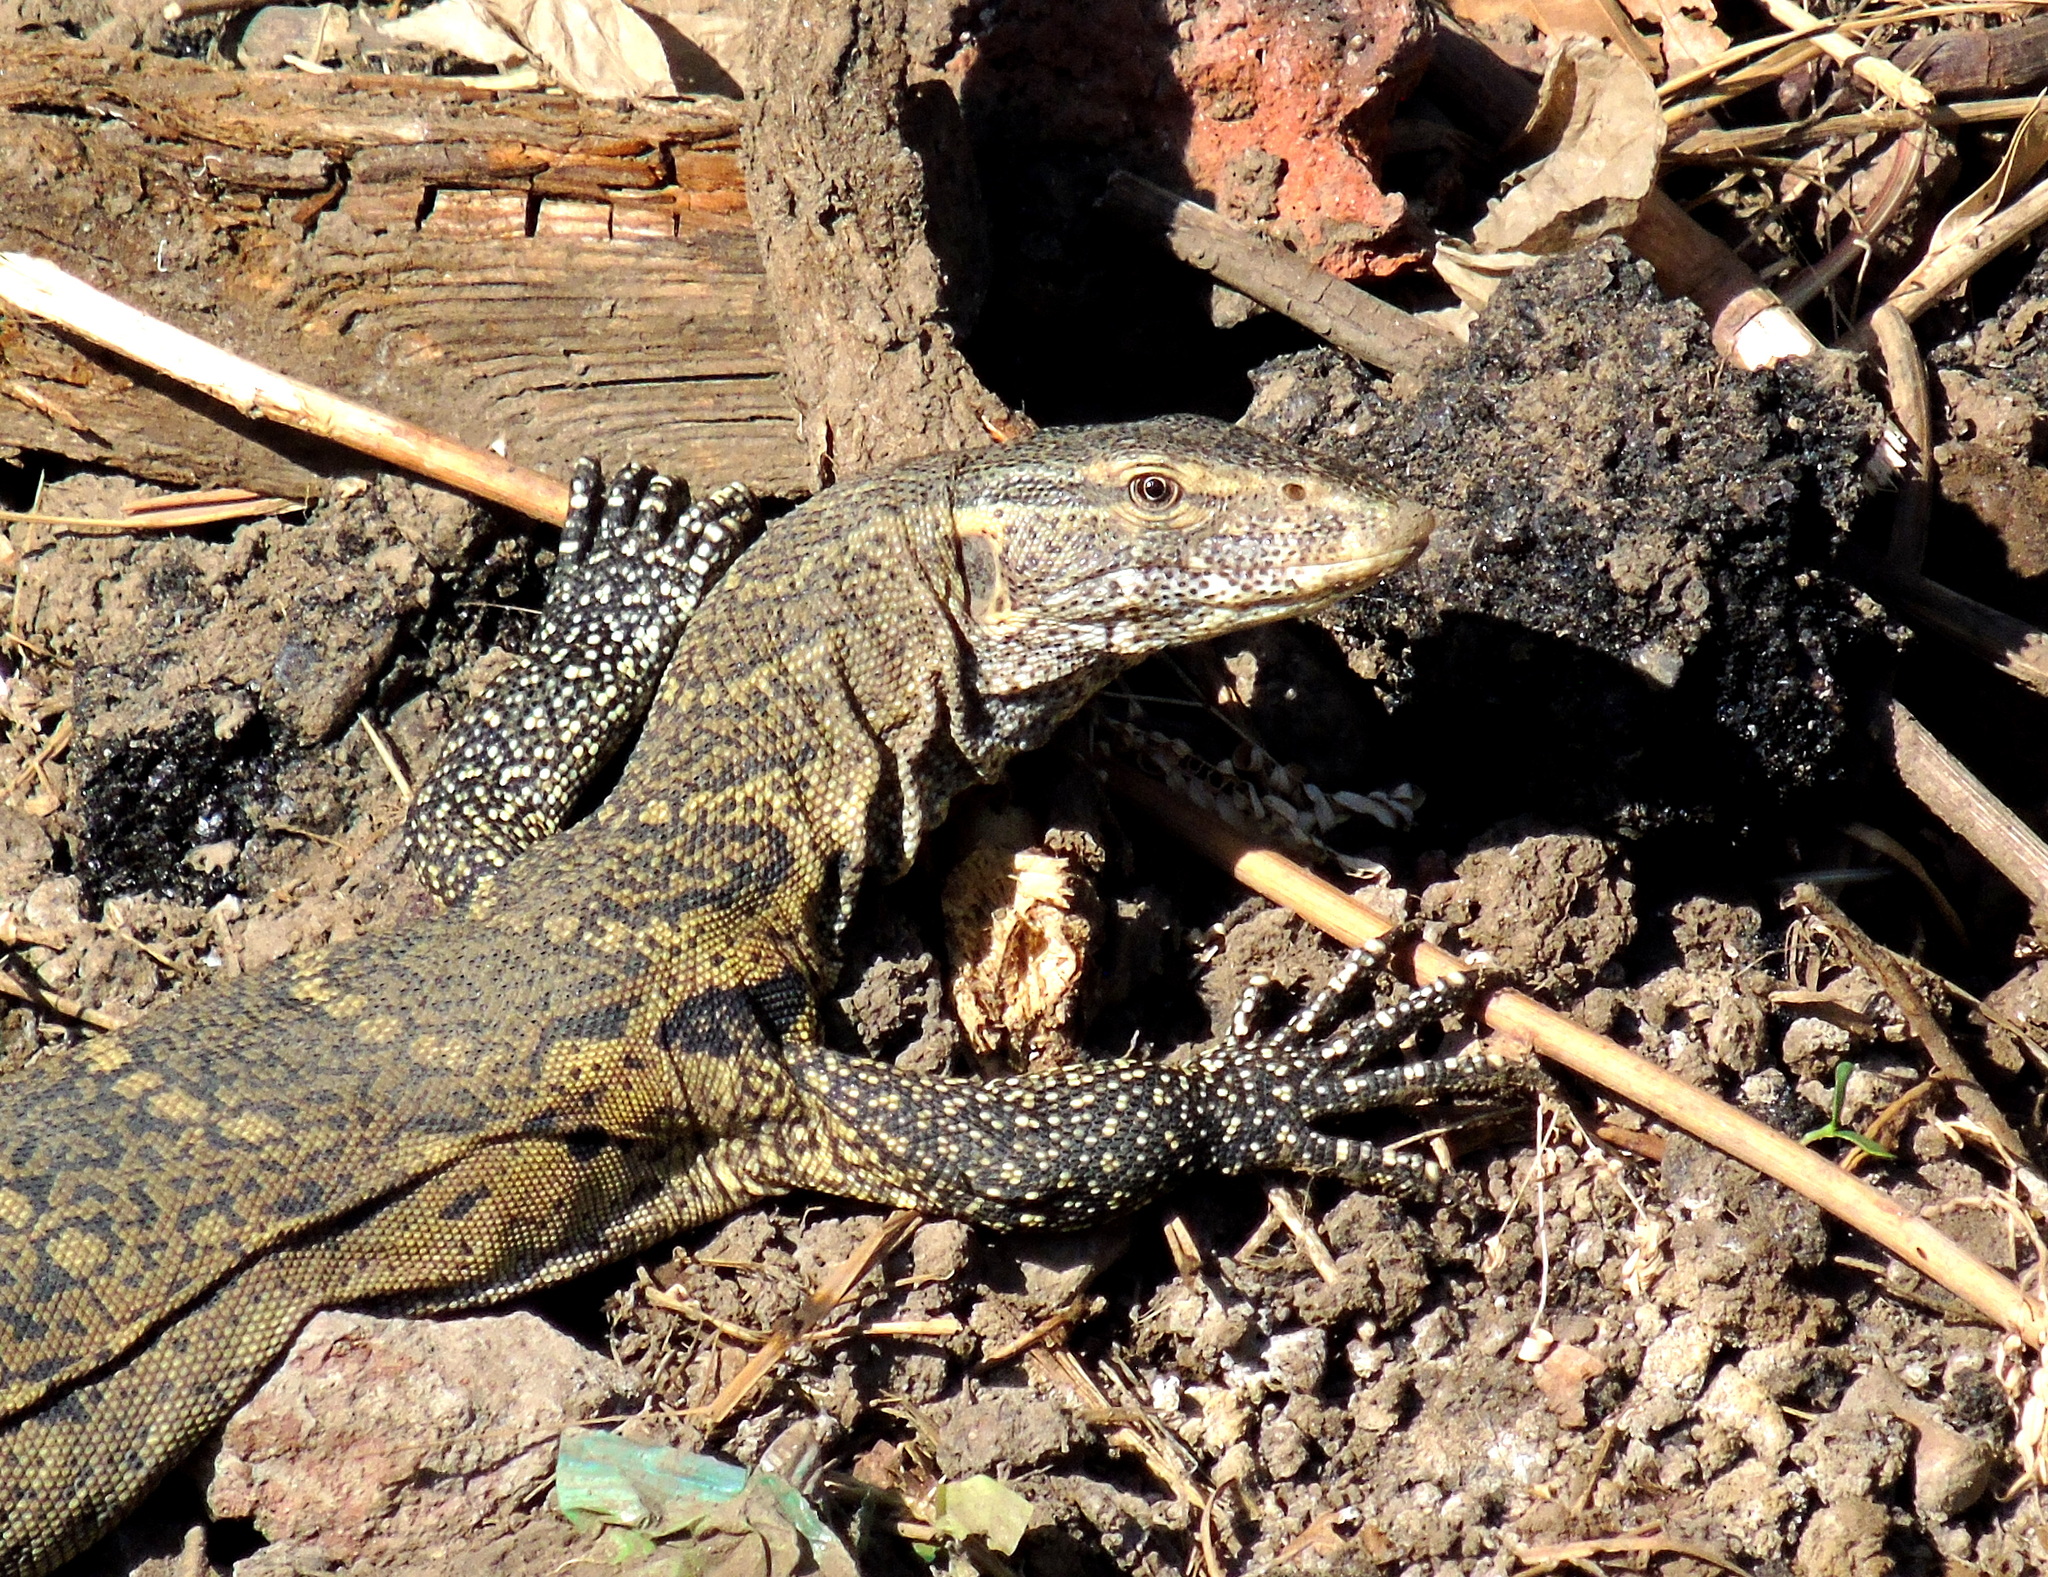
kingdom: Animalia
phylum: Chordata
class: Squamata
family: Varanidae
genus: Varanus
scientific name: Varanus niloticus
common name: Nile monitor
